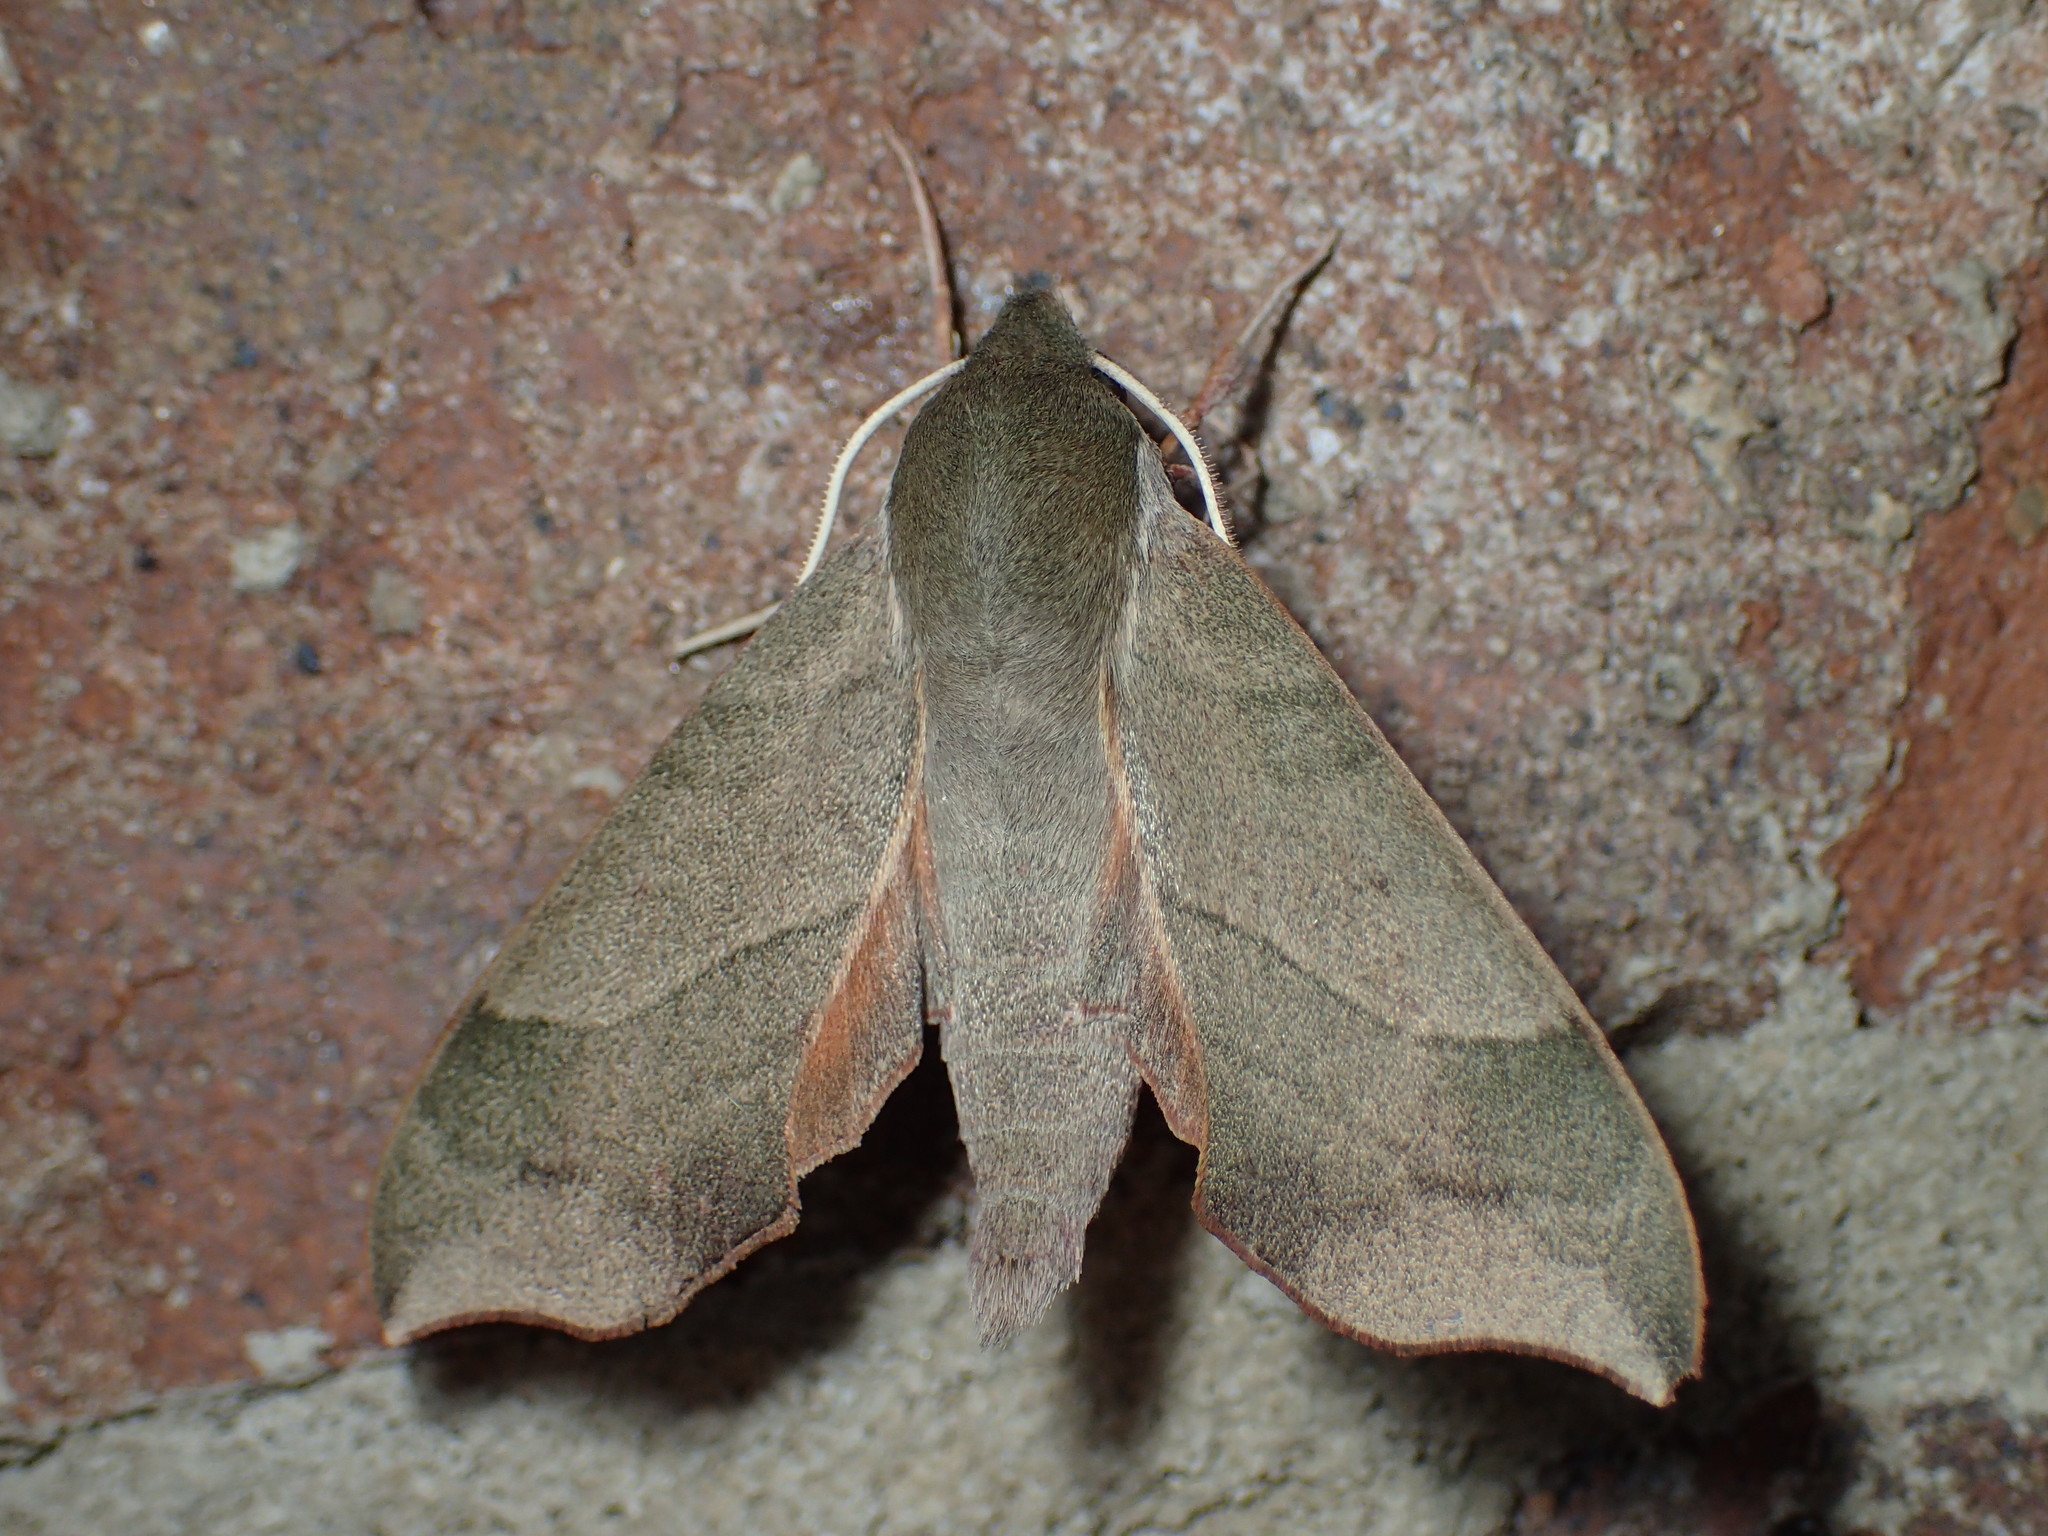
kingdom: Animalia
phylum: Arthropoda
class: Insecta
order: Lepidoptera
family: Sphingidae
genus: Darapsa
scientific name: Darapsa myron
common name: Hog sphinx
